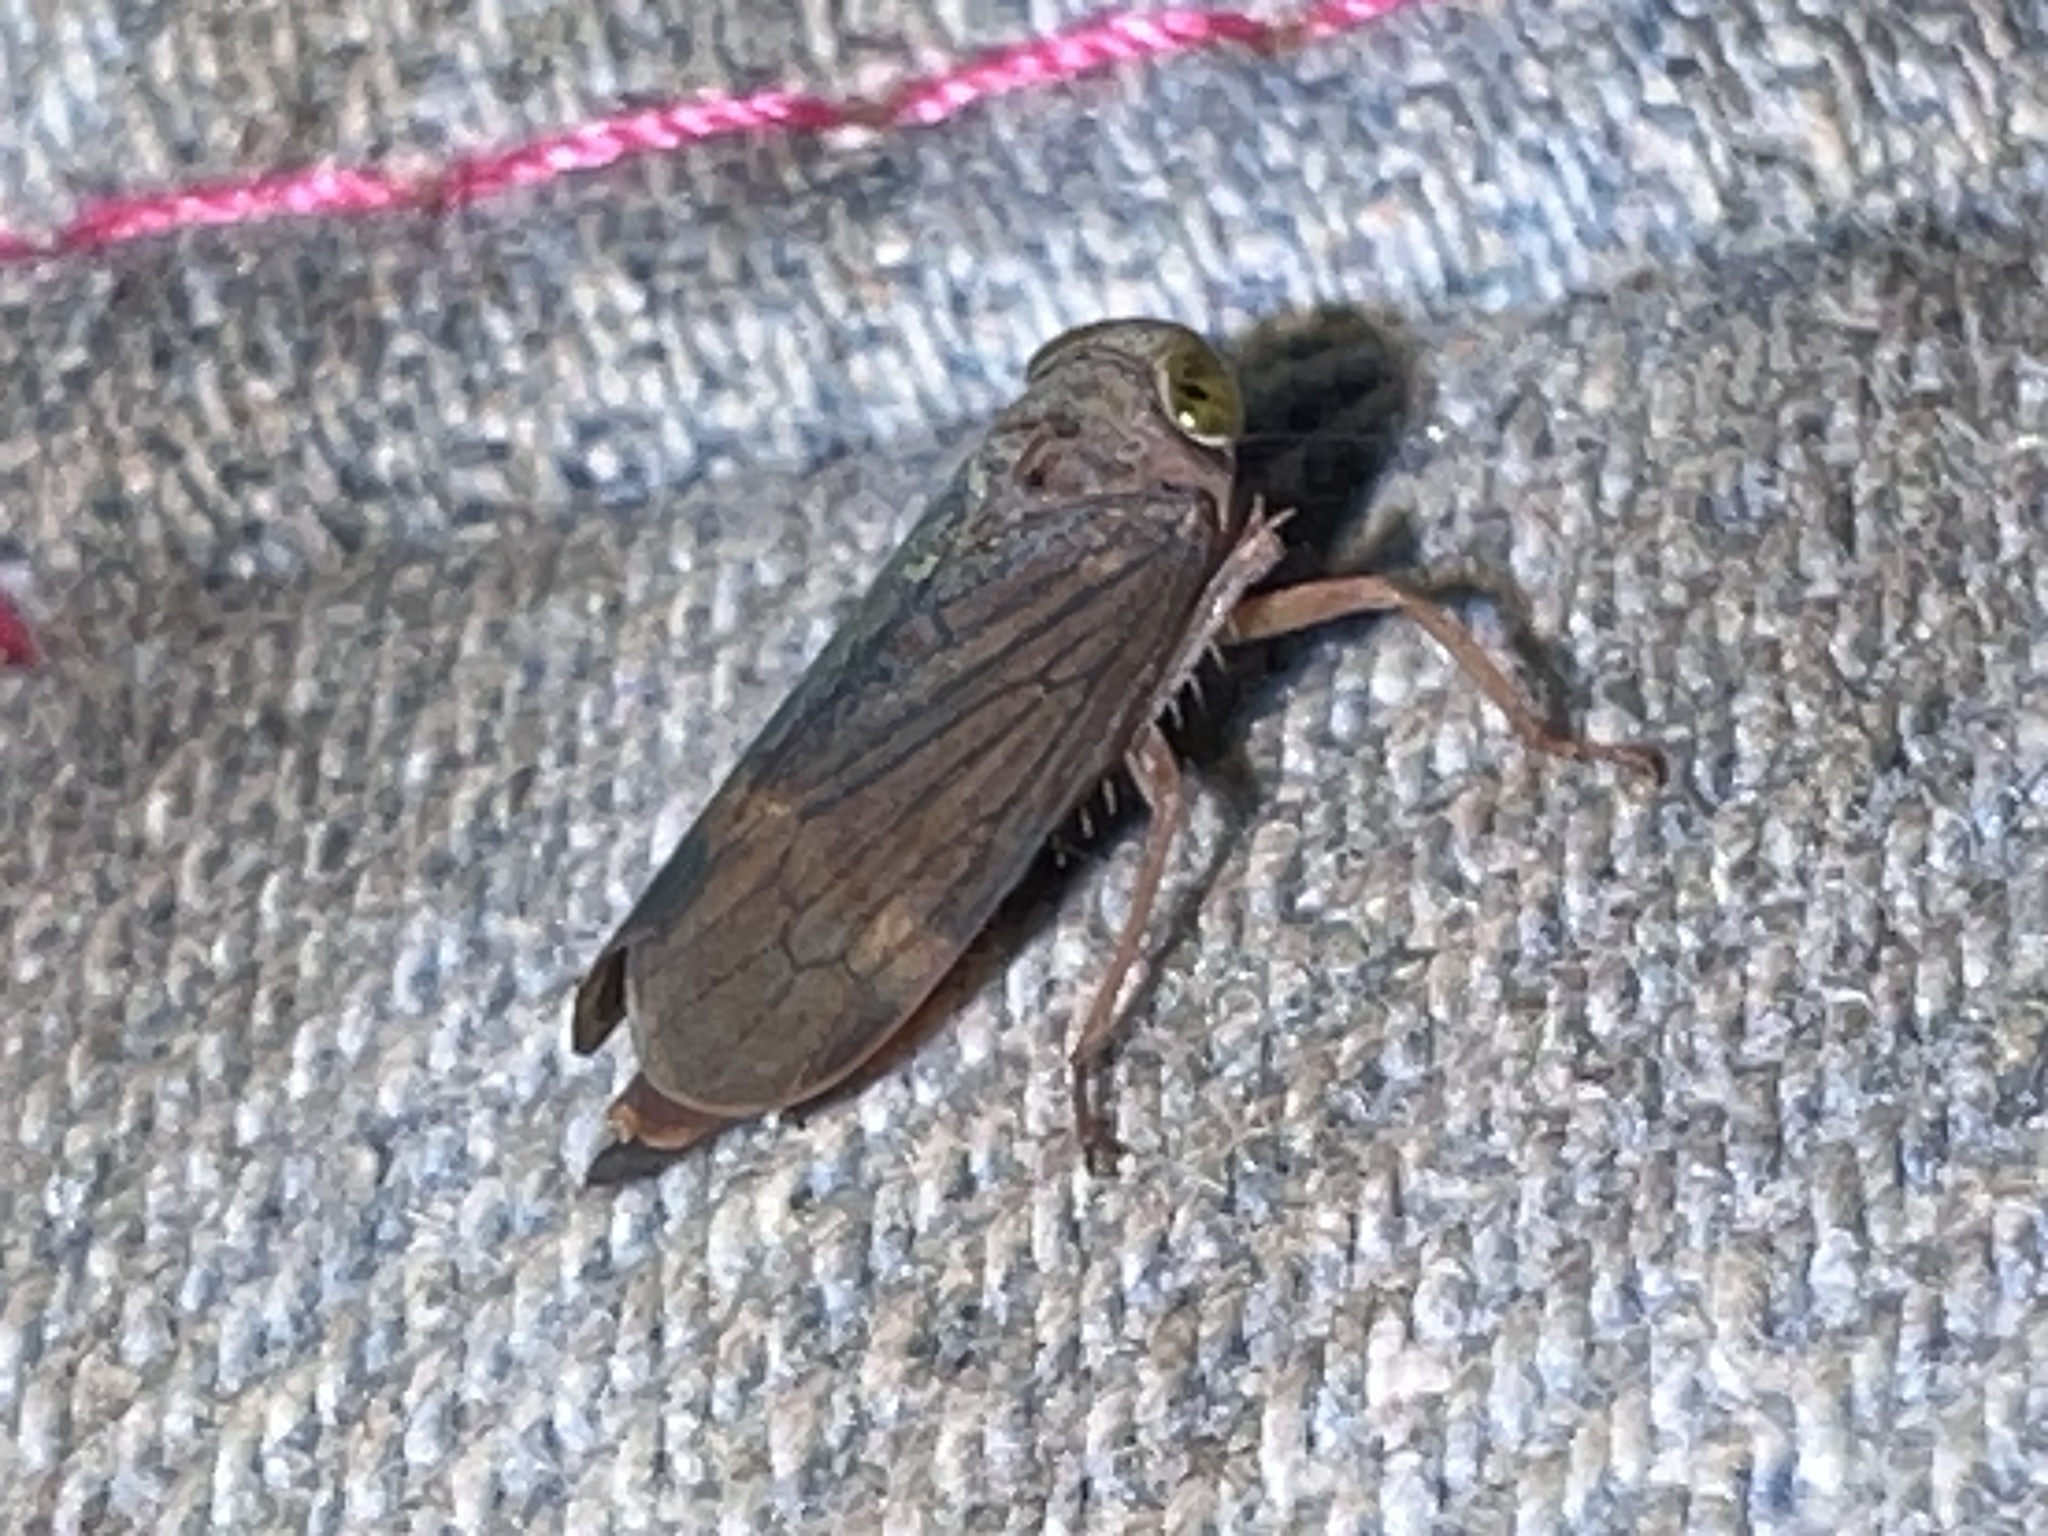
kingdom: Animalia
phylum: Arthropoda
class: Insecta
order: Hemiptera
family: Cicadellidae
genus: Jikradia
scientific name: Jikradia olitoria
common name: Coppery leafhopper
